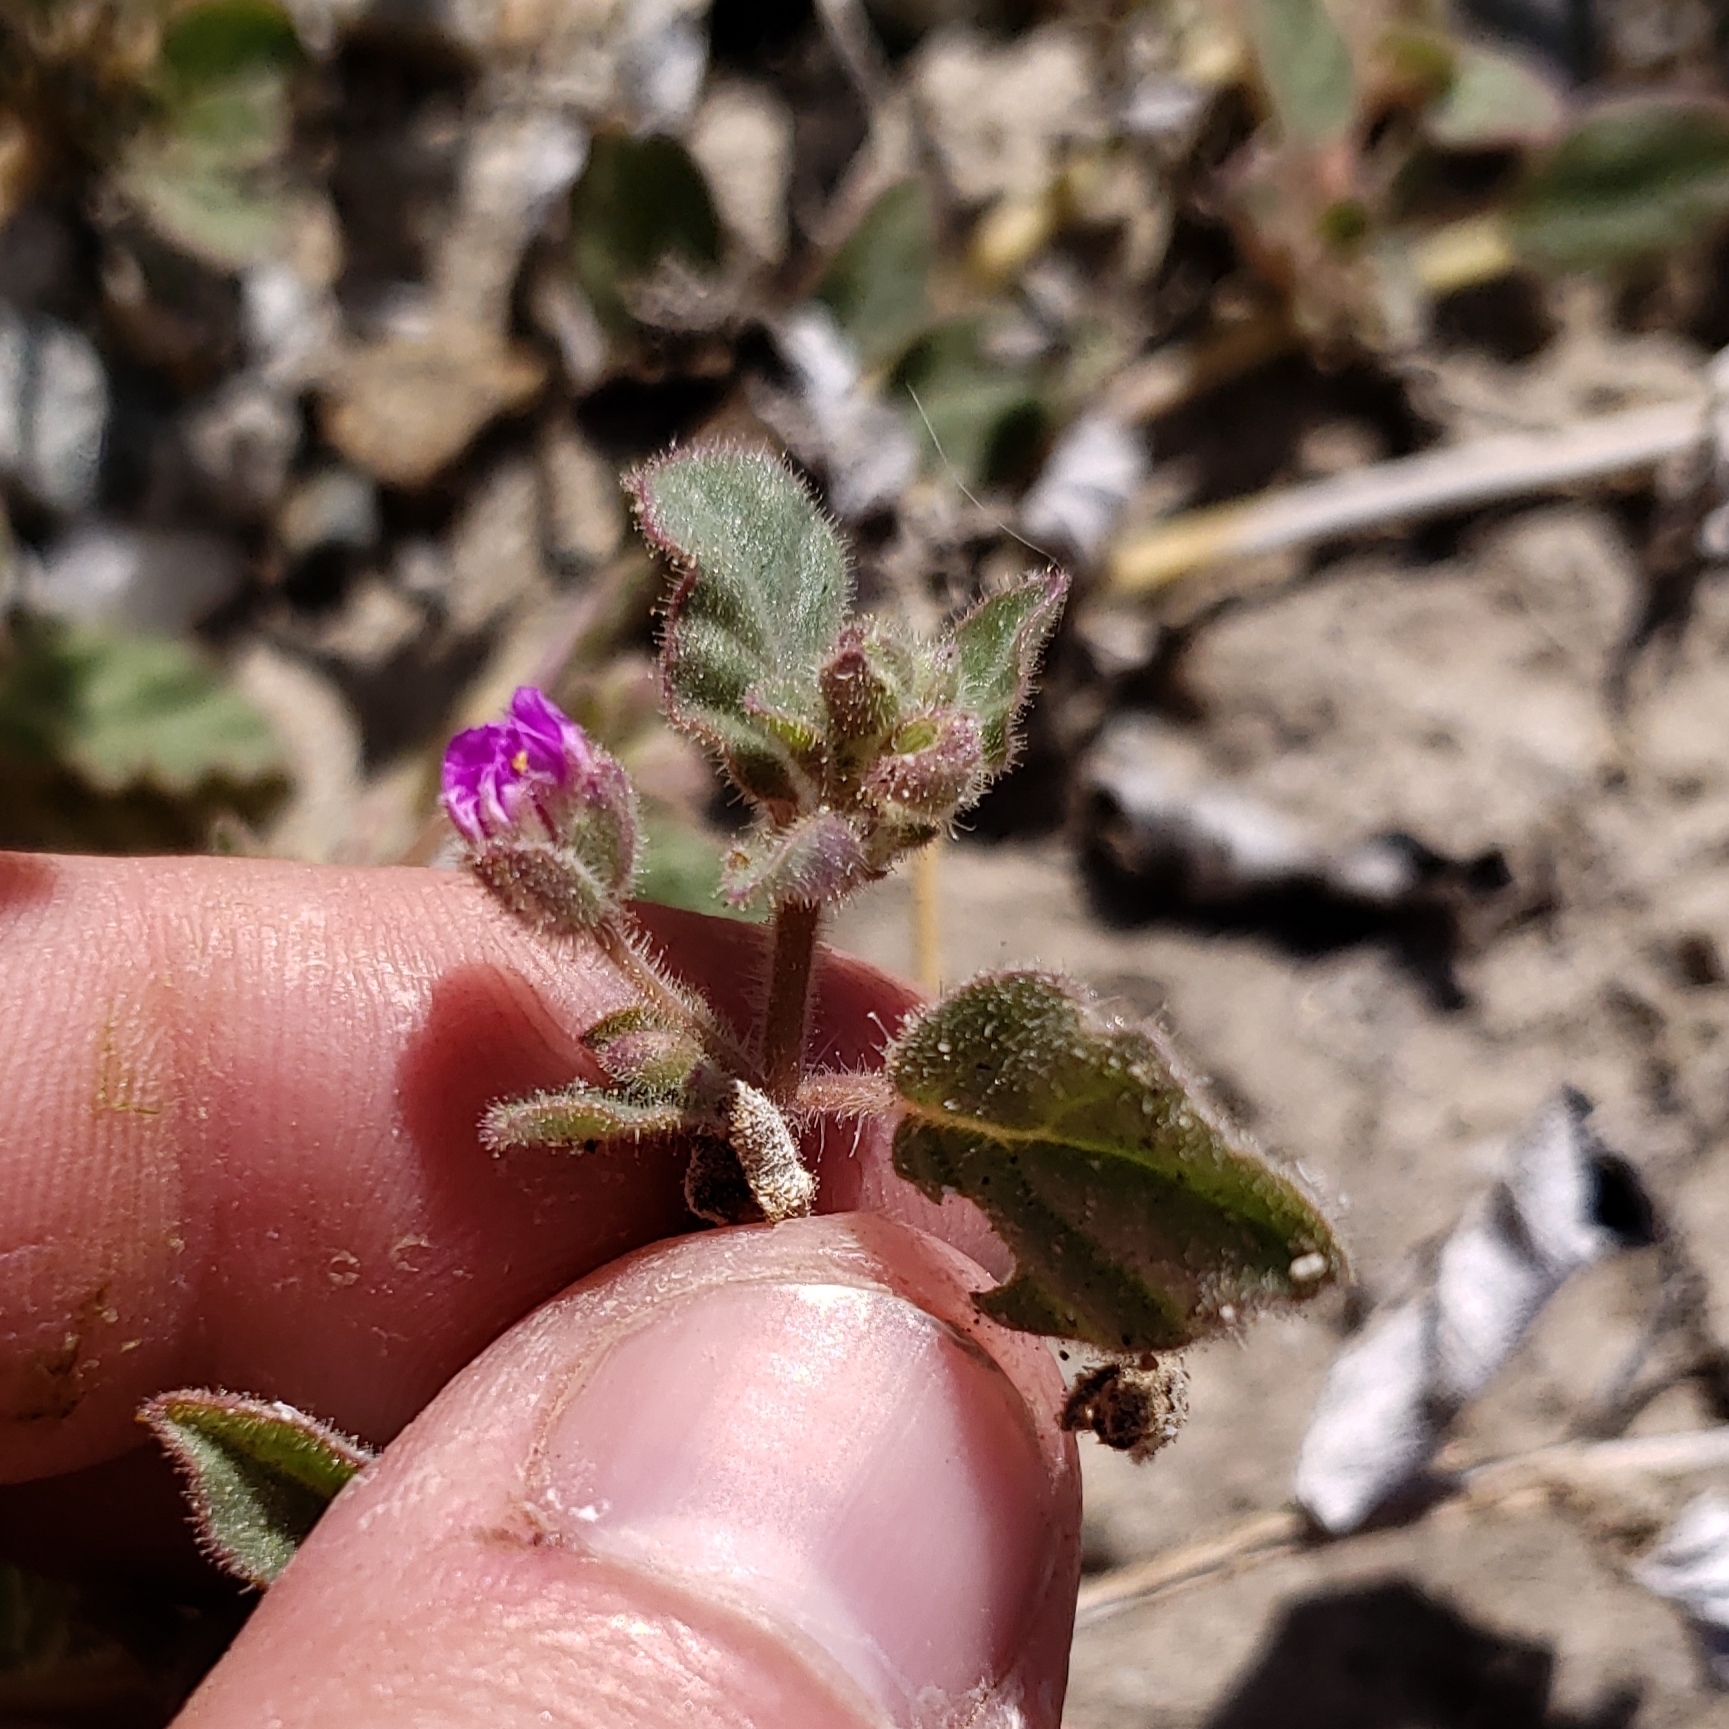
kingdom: Plantae
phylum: Tracheophyta
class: Magnoliopsida
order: Caryophyllales
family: Nyctaginaceae
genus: Allionia
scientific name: Allionia incarnata
